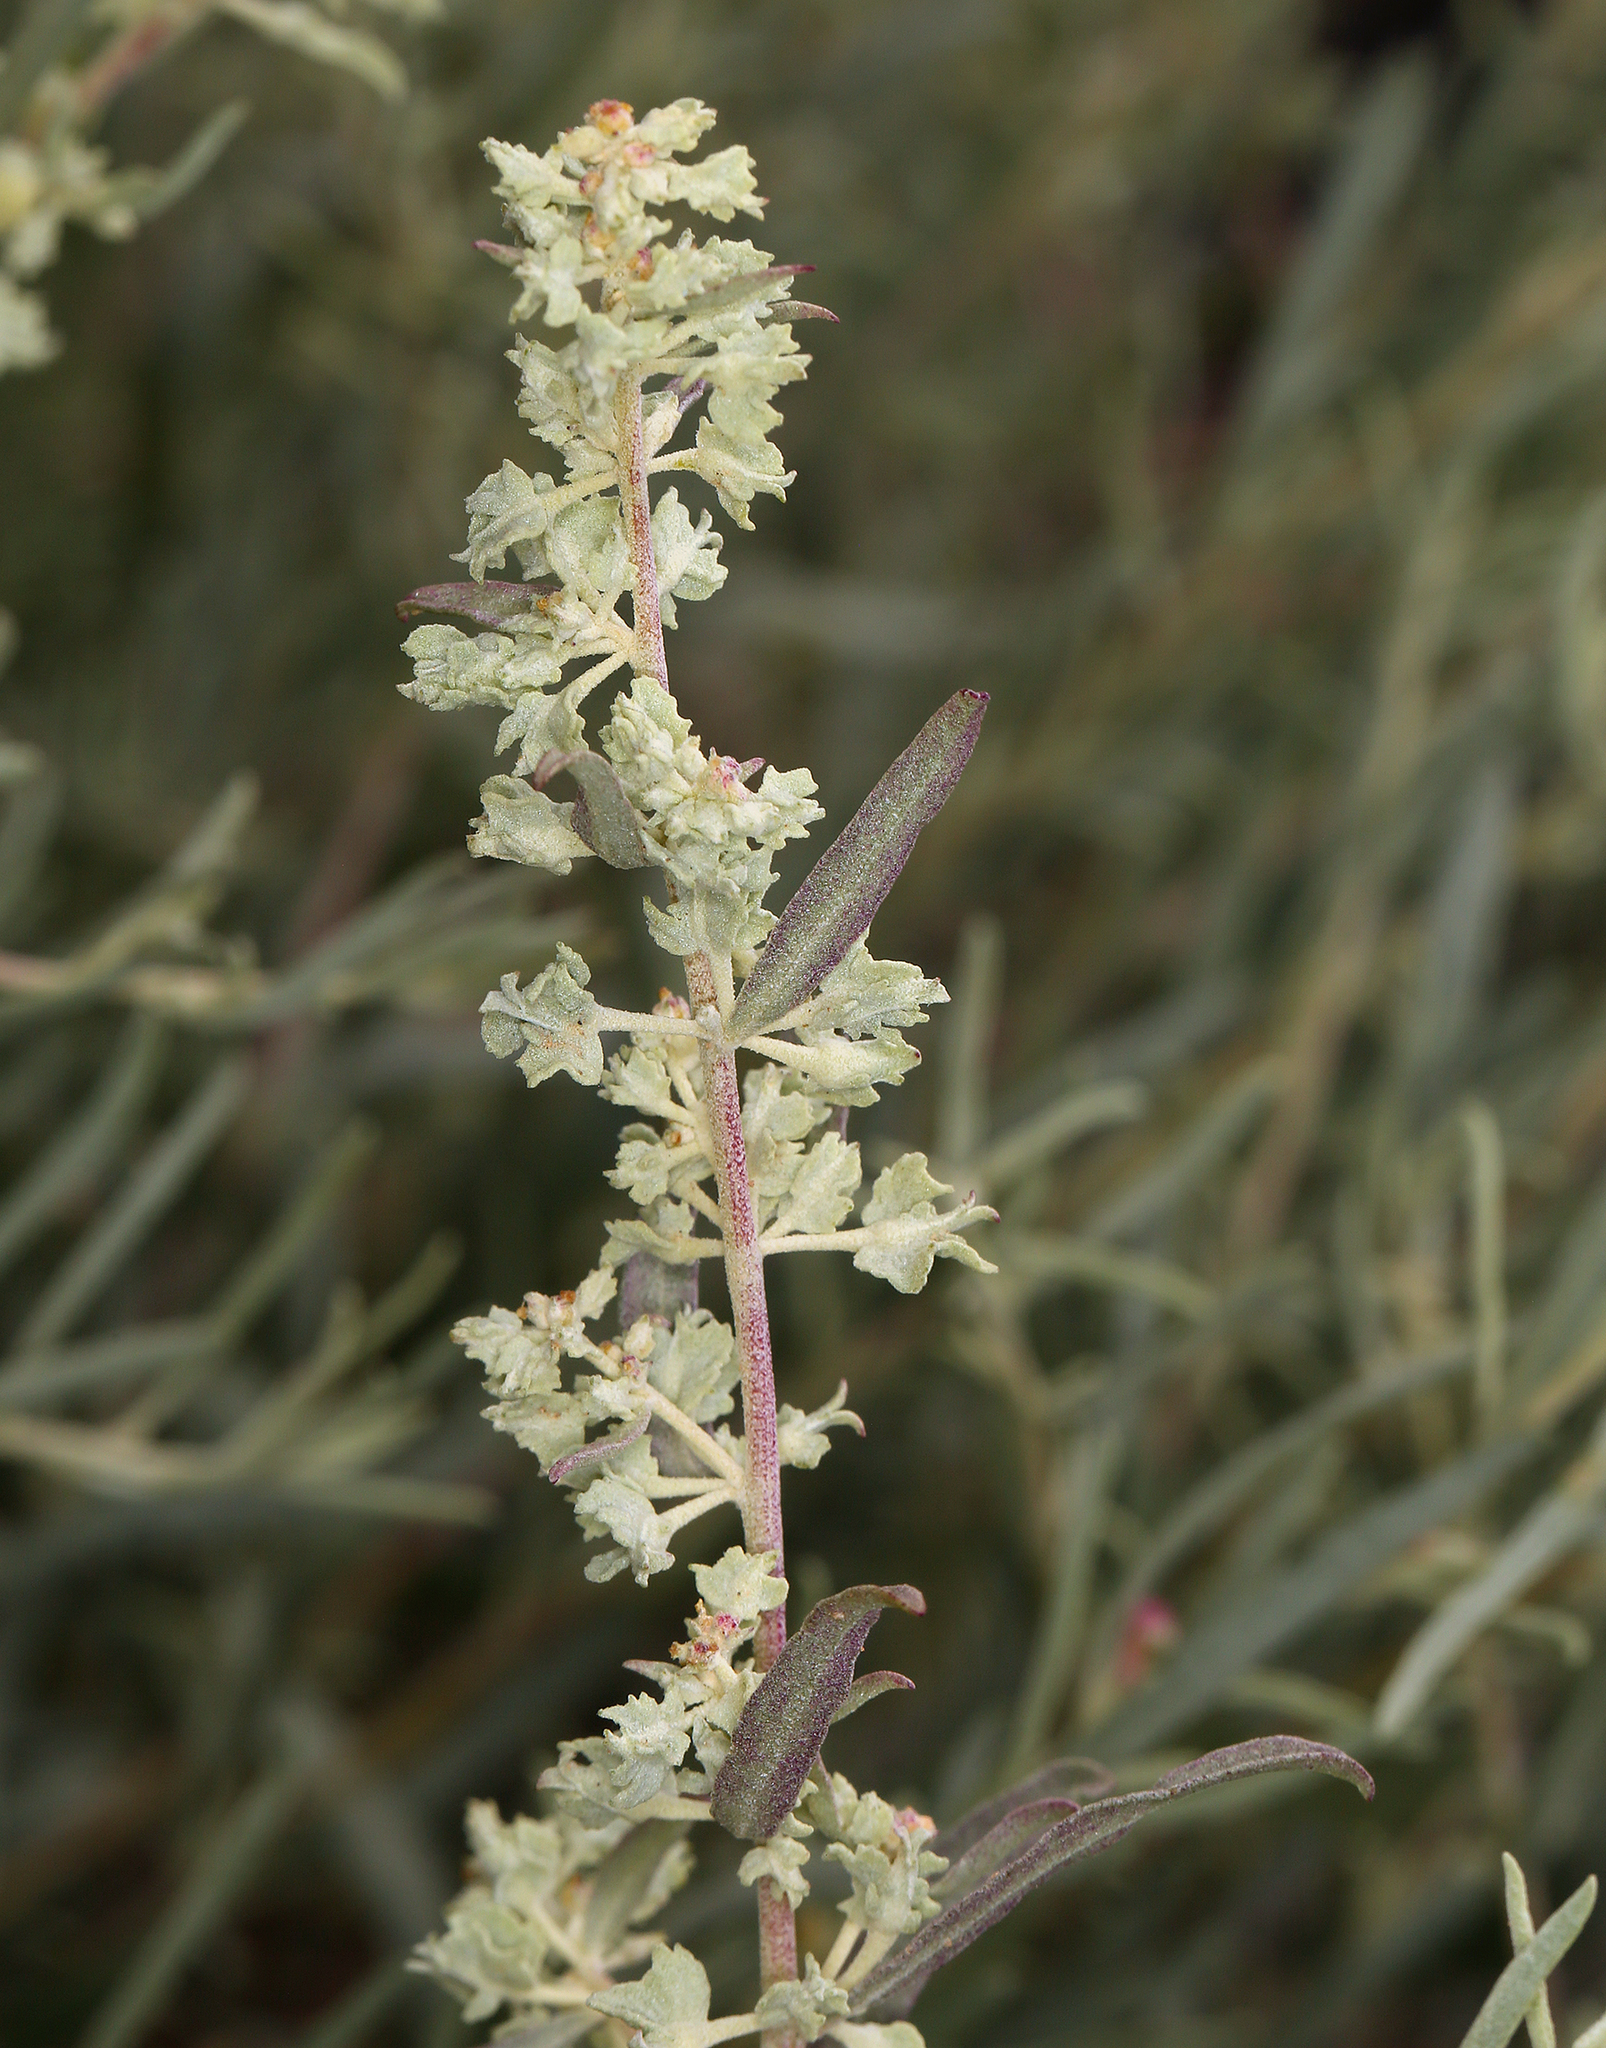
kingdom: Plantae
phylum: Tracheophyta
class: Magnoliopsida
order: Caryophyllales
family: Amaranthaceae
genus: Atriplex
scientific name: Atriplex canescens
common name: Four-wing saltbush
